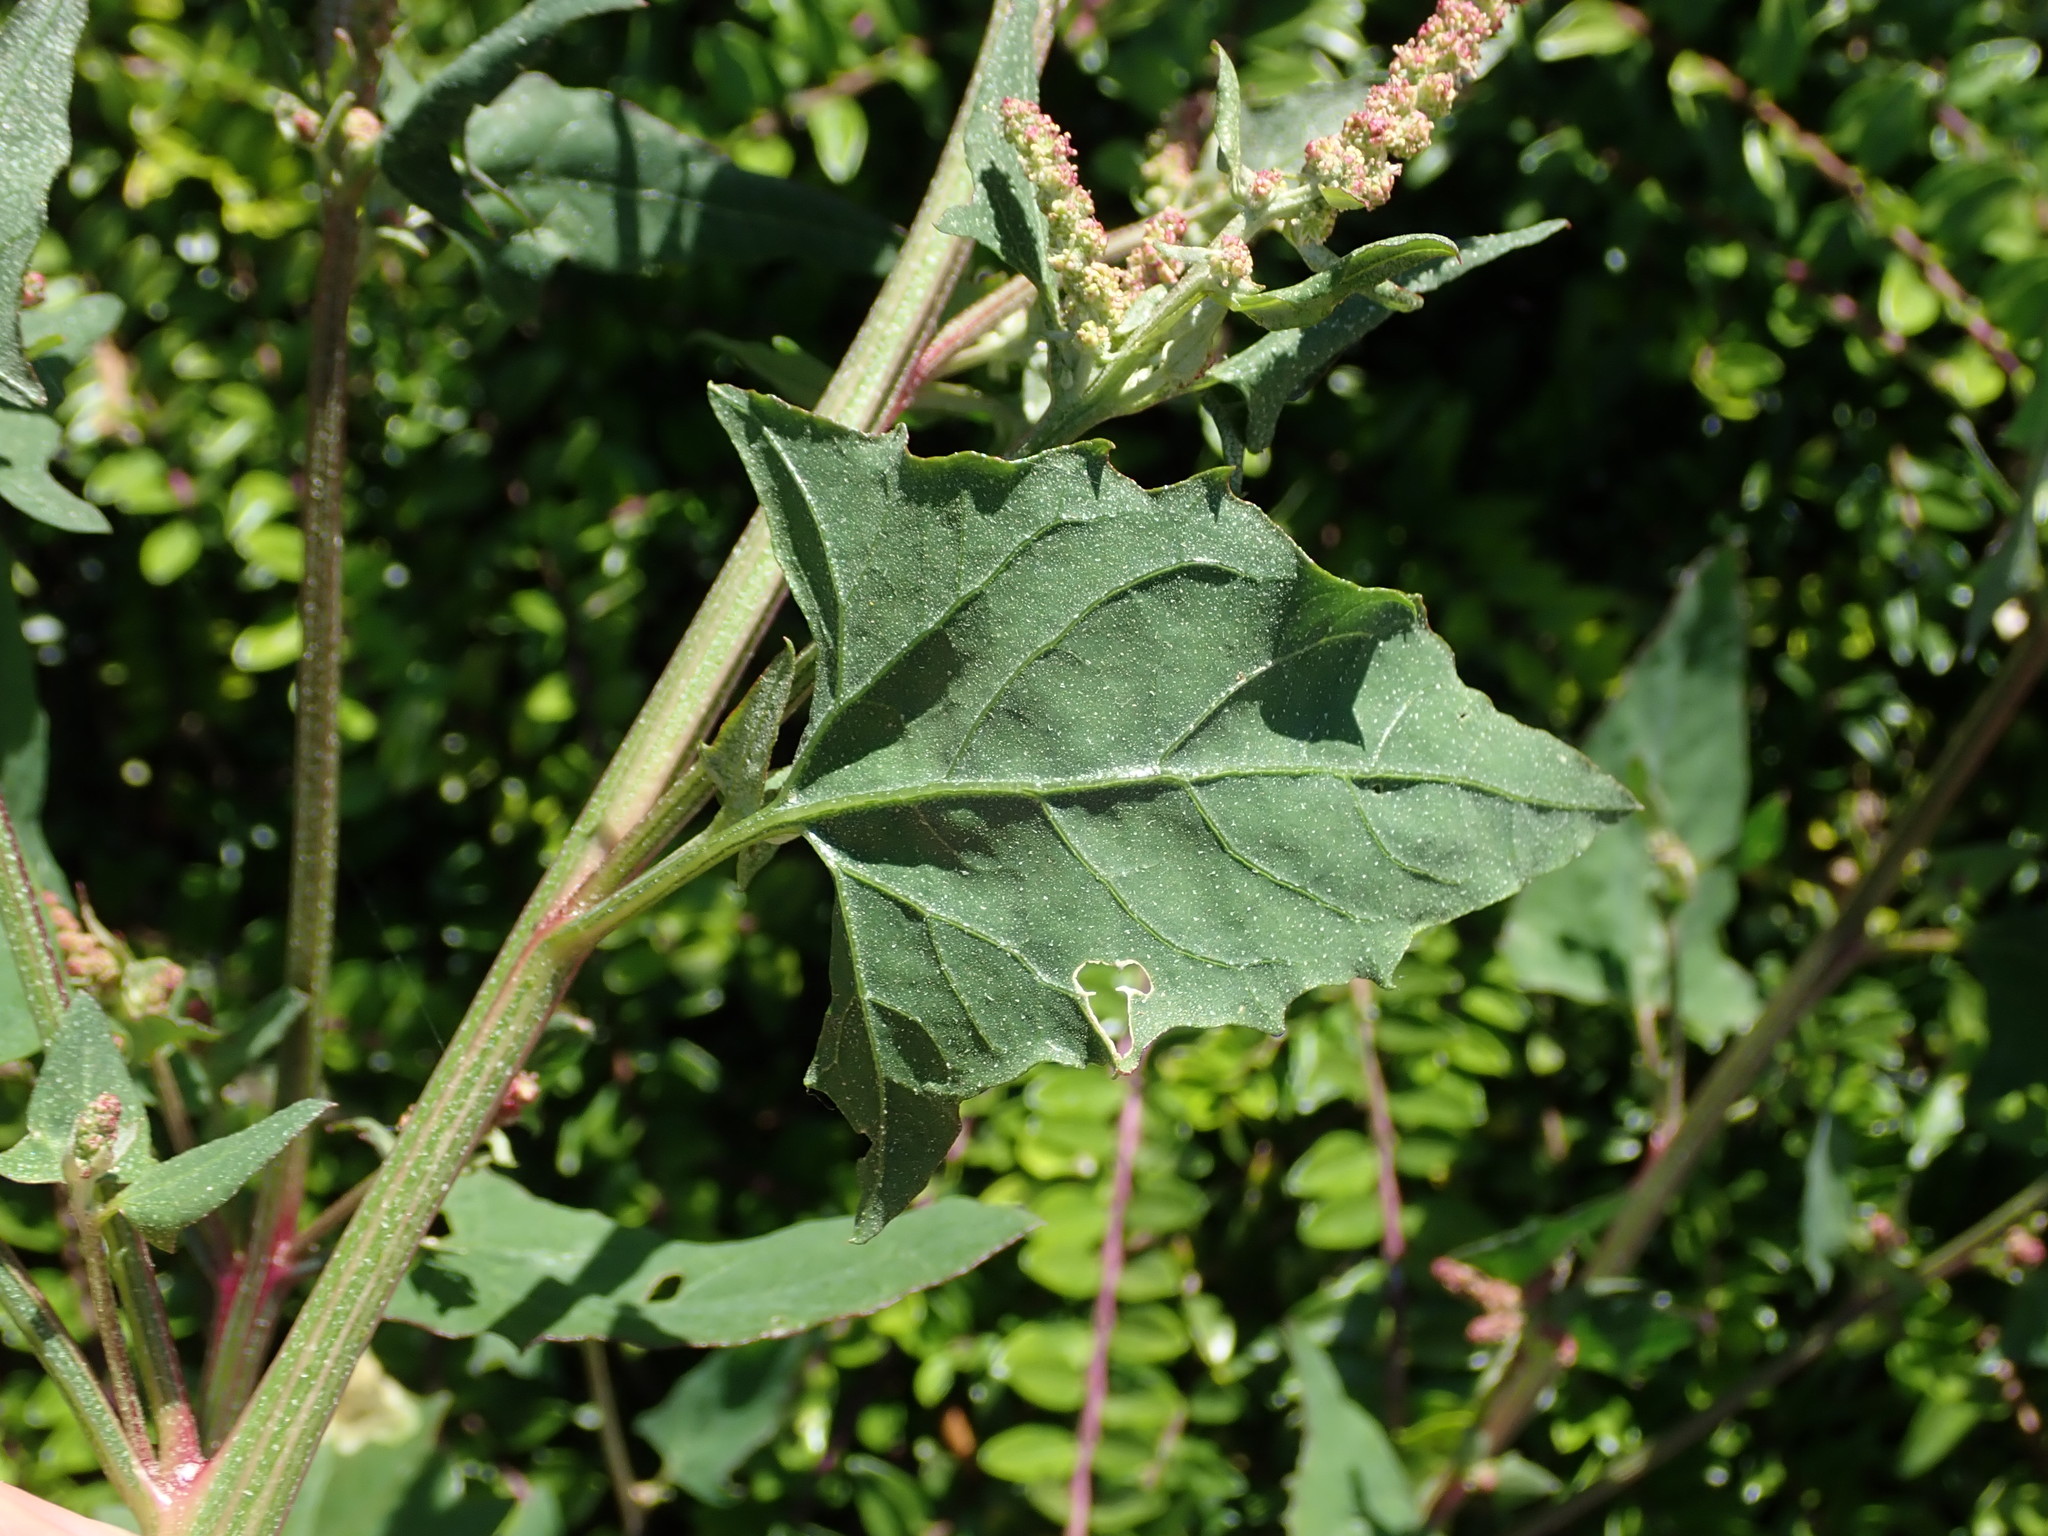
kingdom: Plantae
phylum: Tracheophyta
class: Magnoliopsida
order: Caryophyllales
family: Amaranthaceae
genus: Atriplex
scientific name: Atriplex prostrata
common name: Spear-leaved orache
